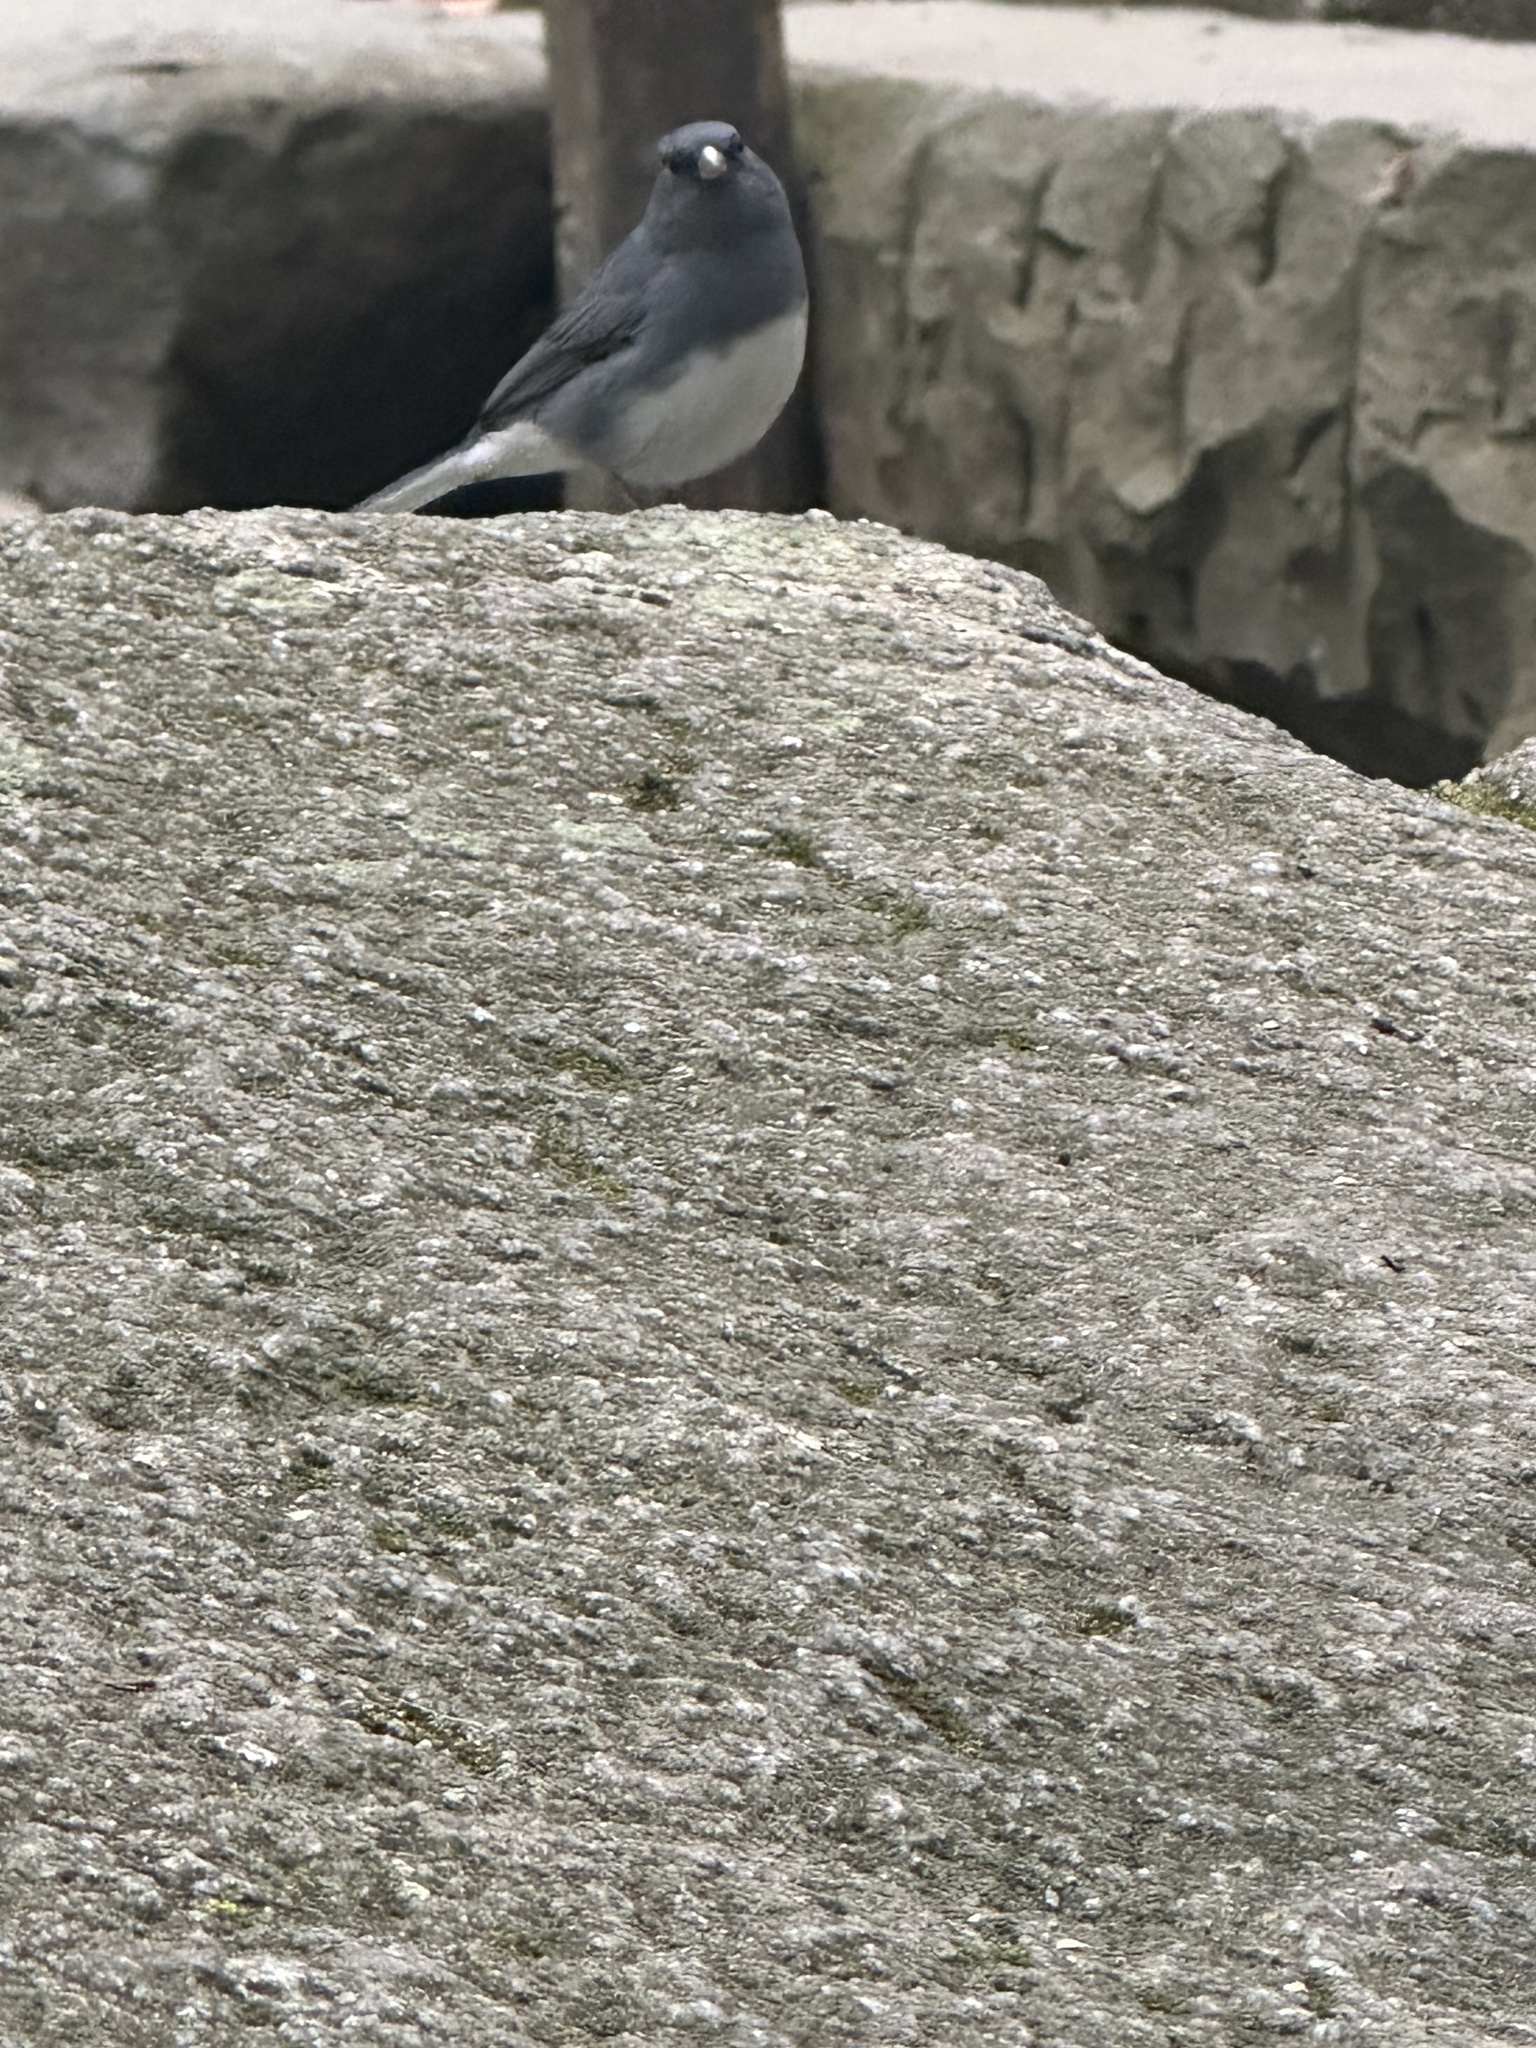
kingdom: Animalia
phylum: Chordata
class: Aves
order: Passeriformes
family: Passerellidae
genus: Junco
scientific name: Junco hyemalis
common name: Dark-eyed junco
